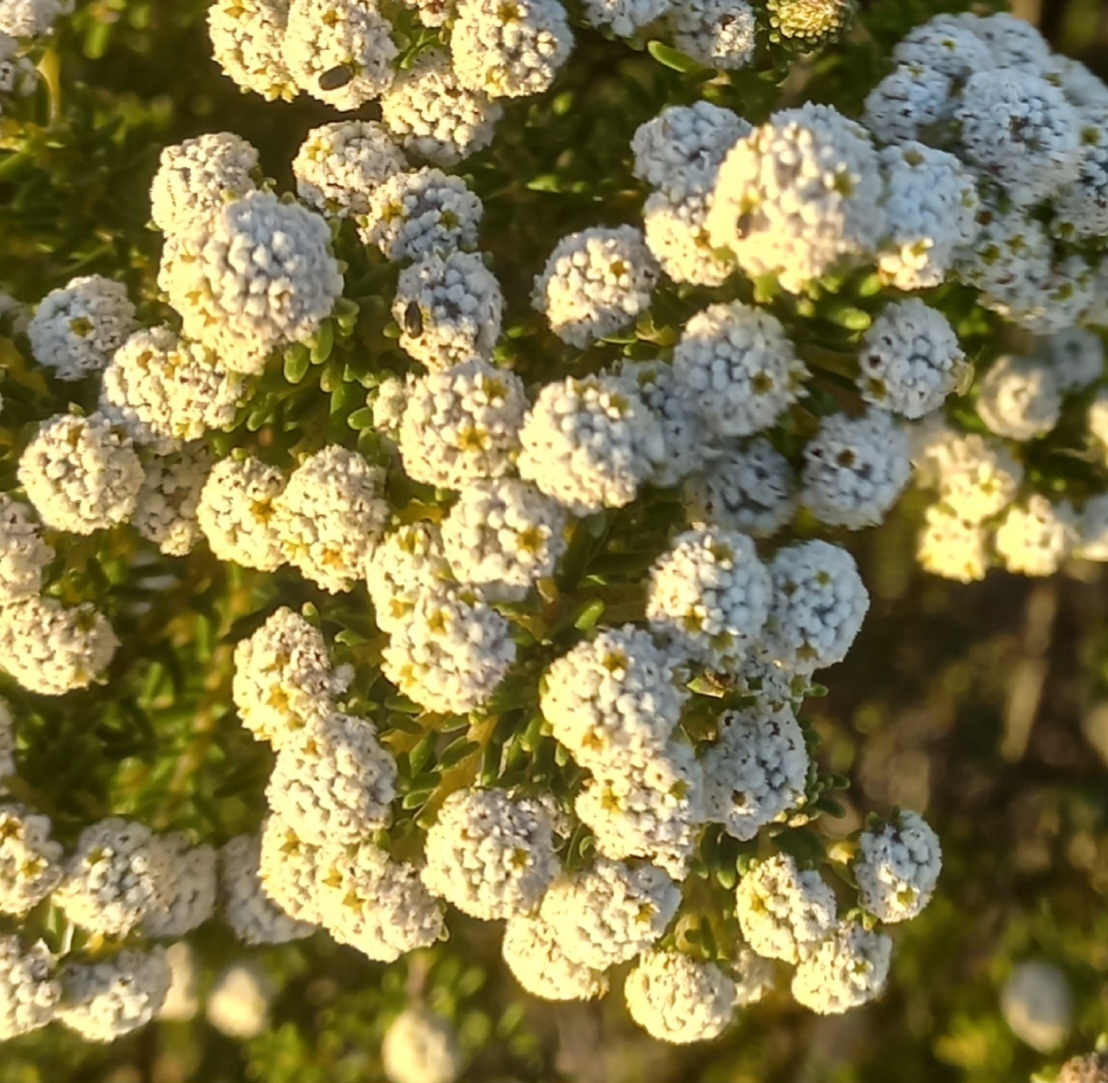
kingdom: Plantae
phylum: Tracheophyta
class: Magnoliopsida
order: Rosales
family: Rhamnaceae
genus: Phylica
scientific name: Phylica ericoides
